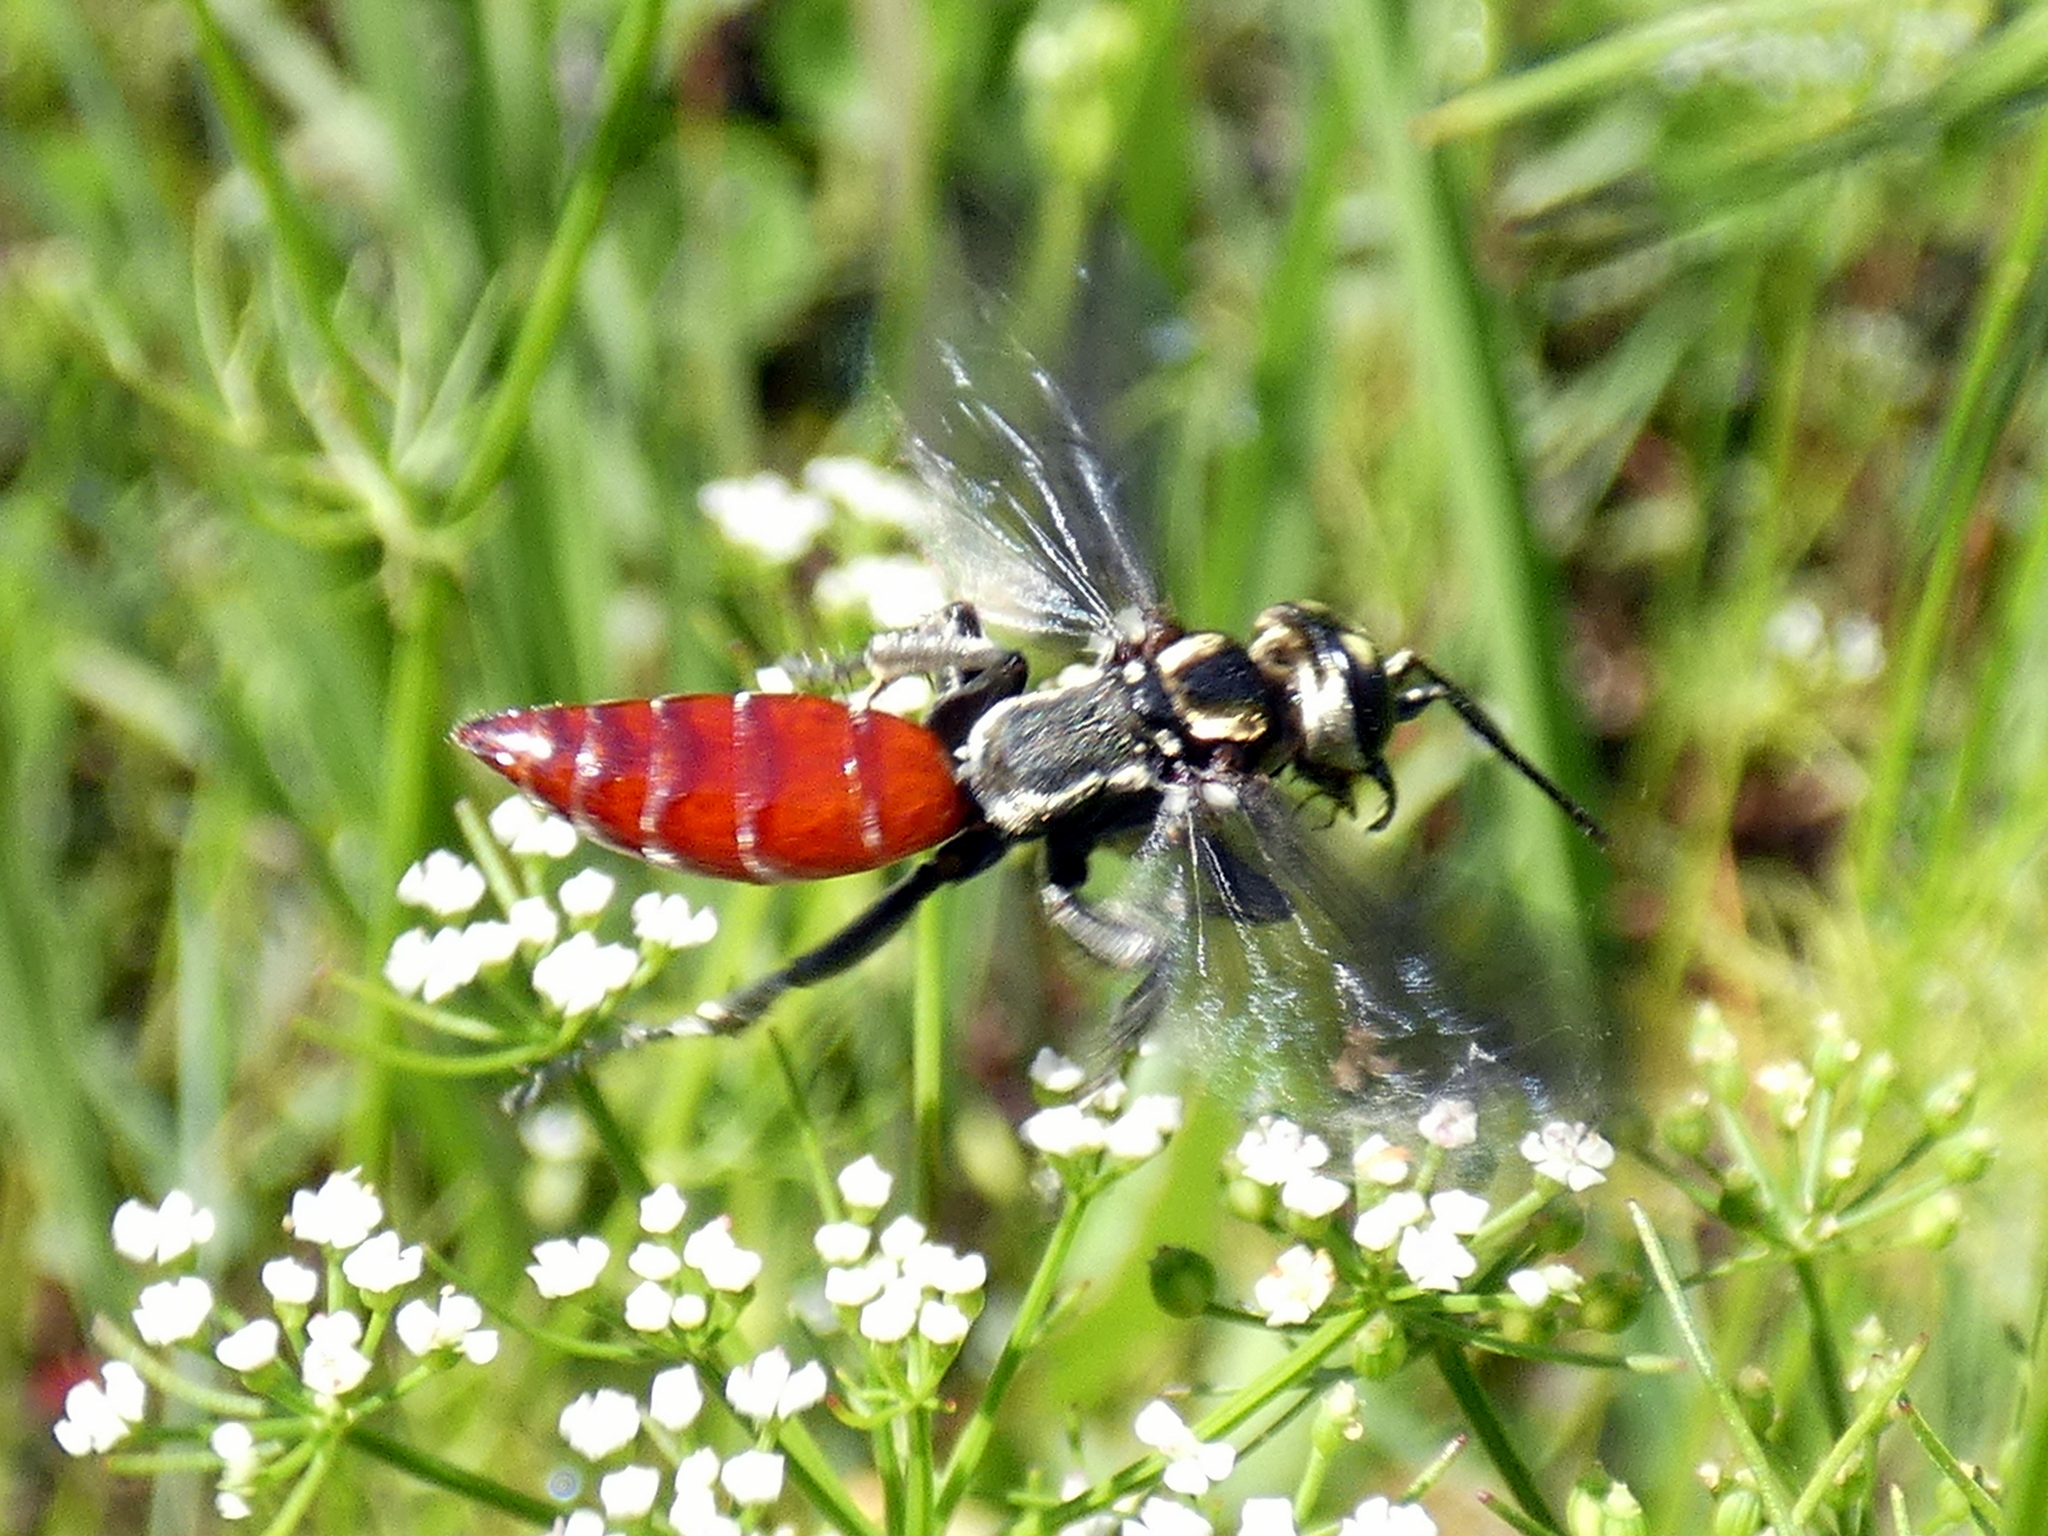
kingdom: Animalia
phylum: Arthropoda
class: Insecta
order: Hymenoptera
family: Crabronidae
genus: Larra
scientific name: Larra bicolor
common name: Wasp
